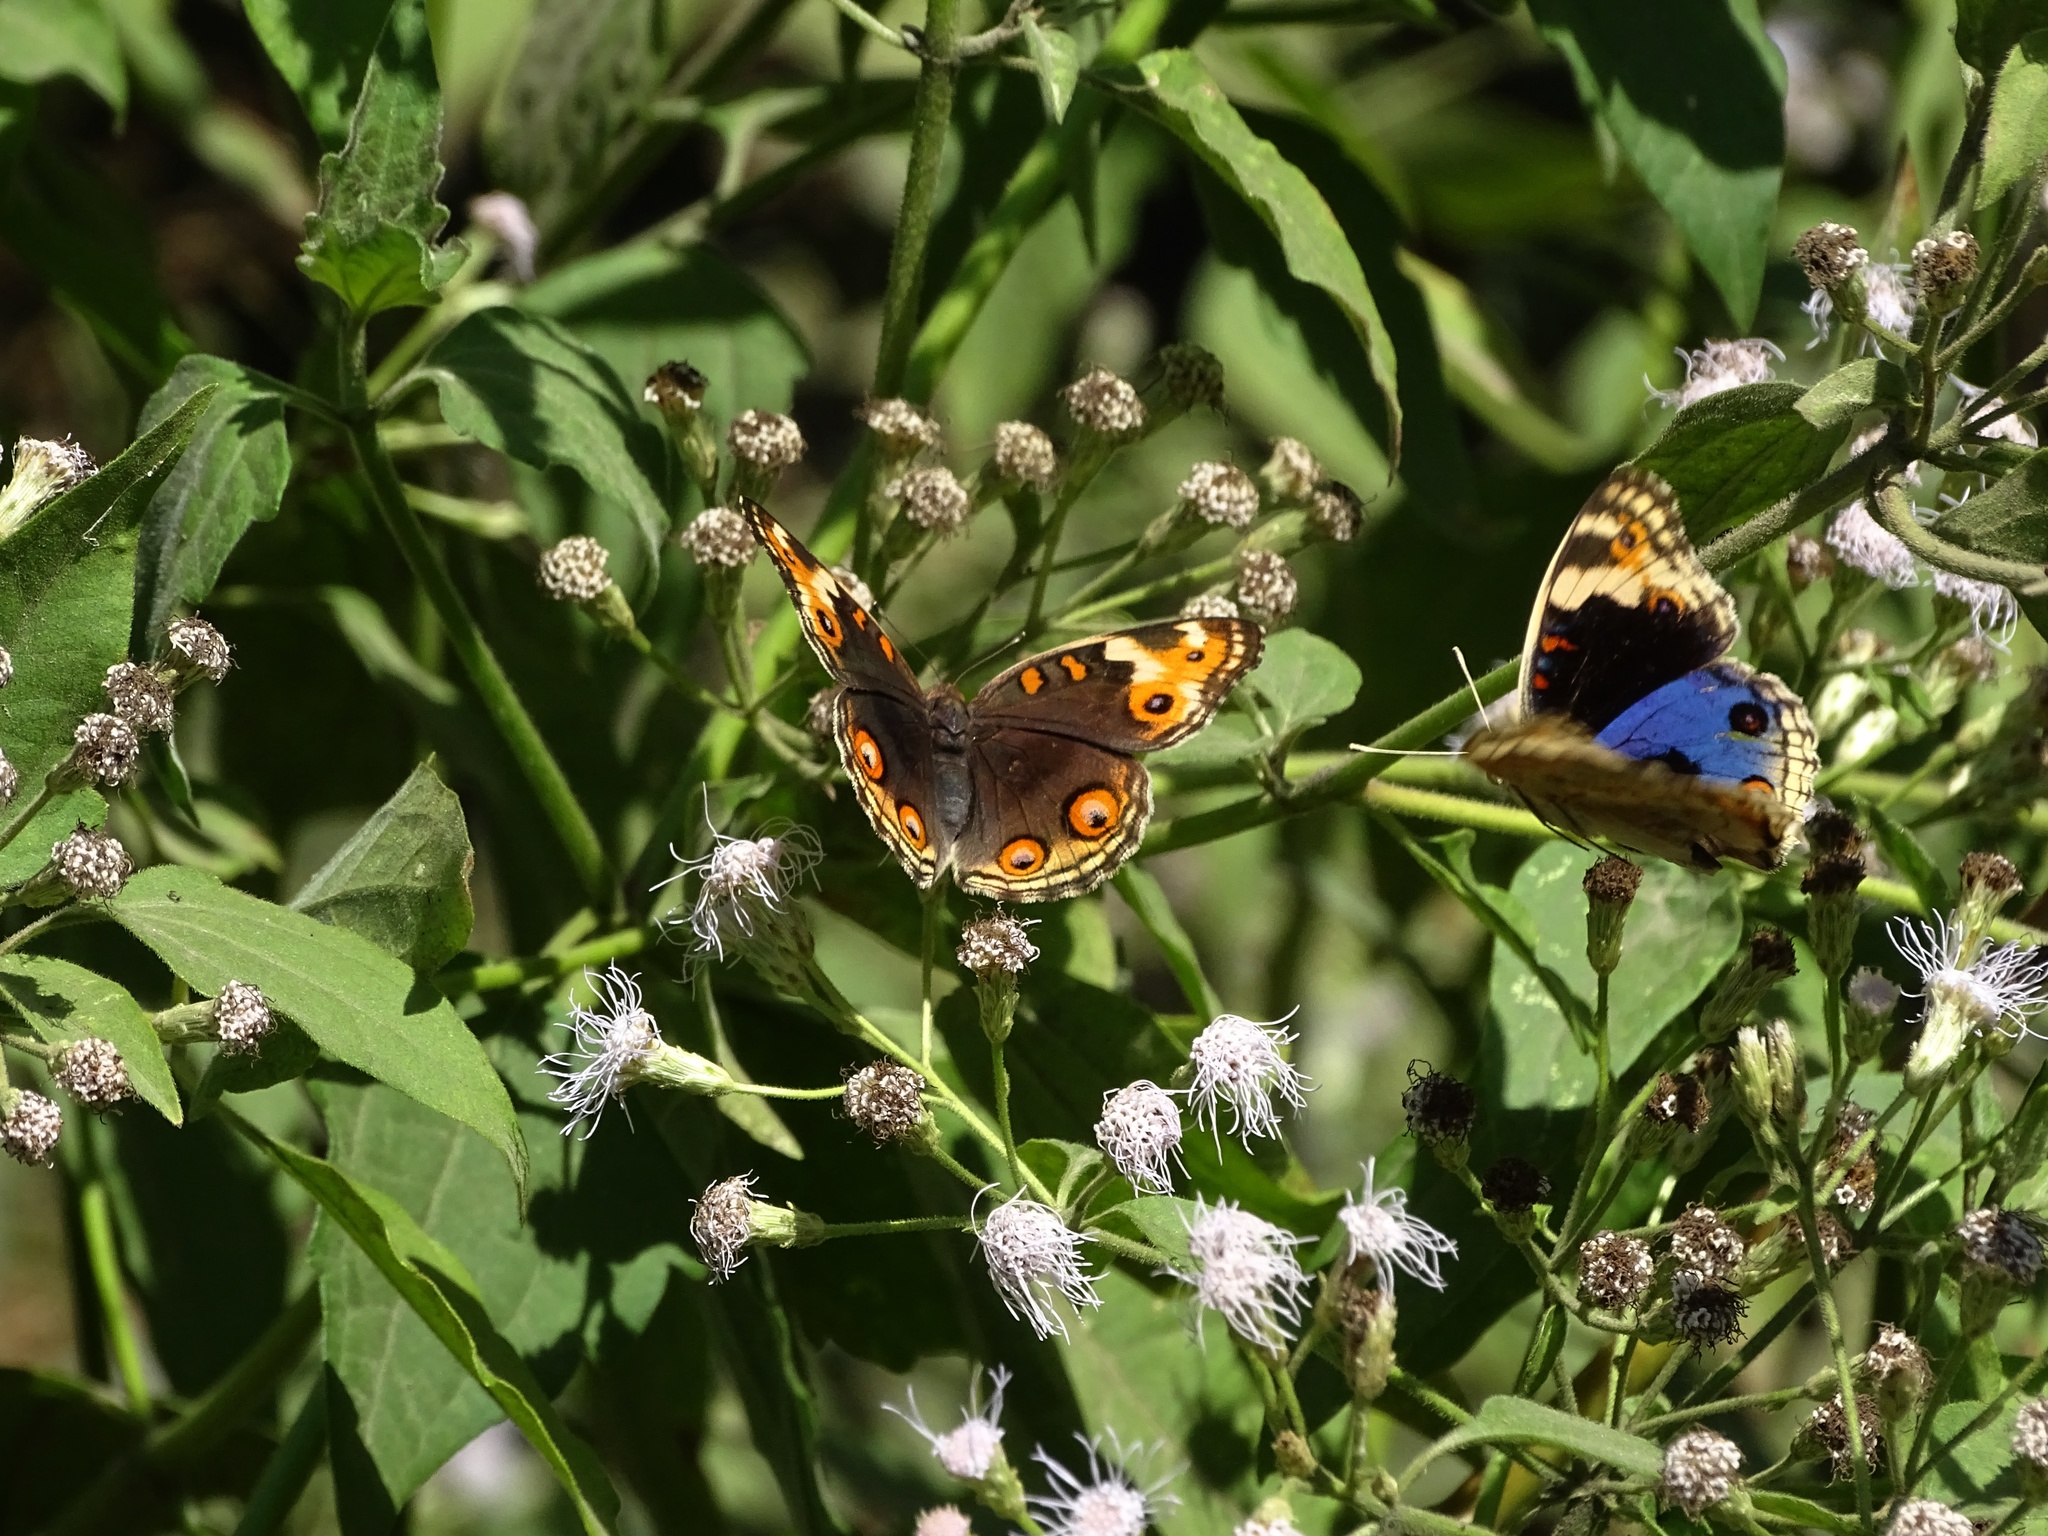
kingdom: Animalia
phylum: Arthropoda
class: Insecta
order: Lepidoptera
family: Nymphalidae
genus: Junonia
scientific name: Junonia orithya
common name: Blue pansy
